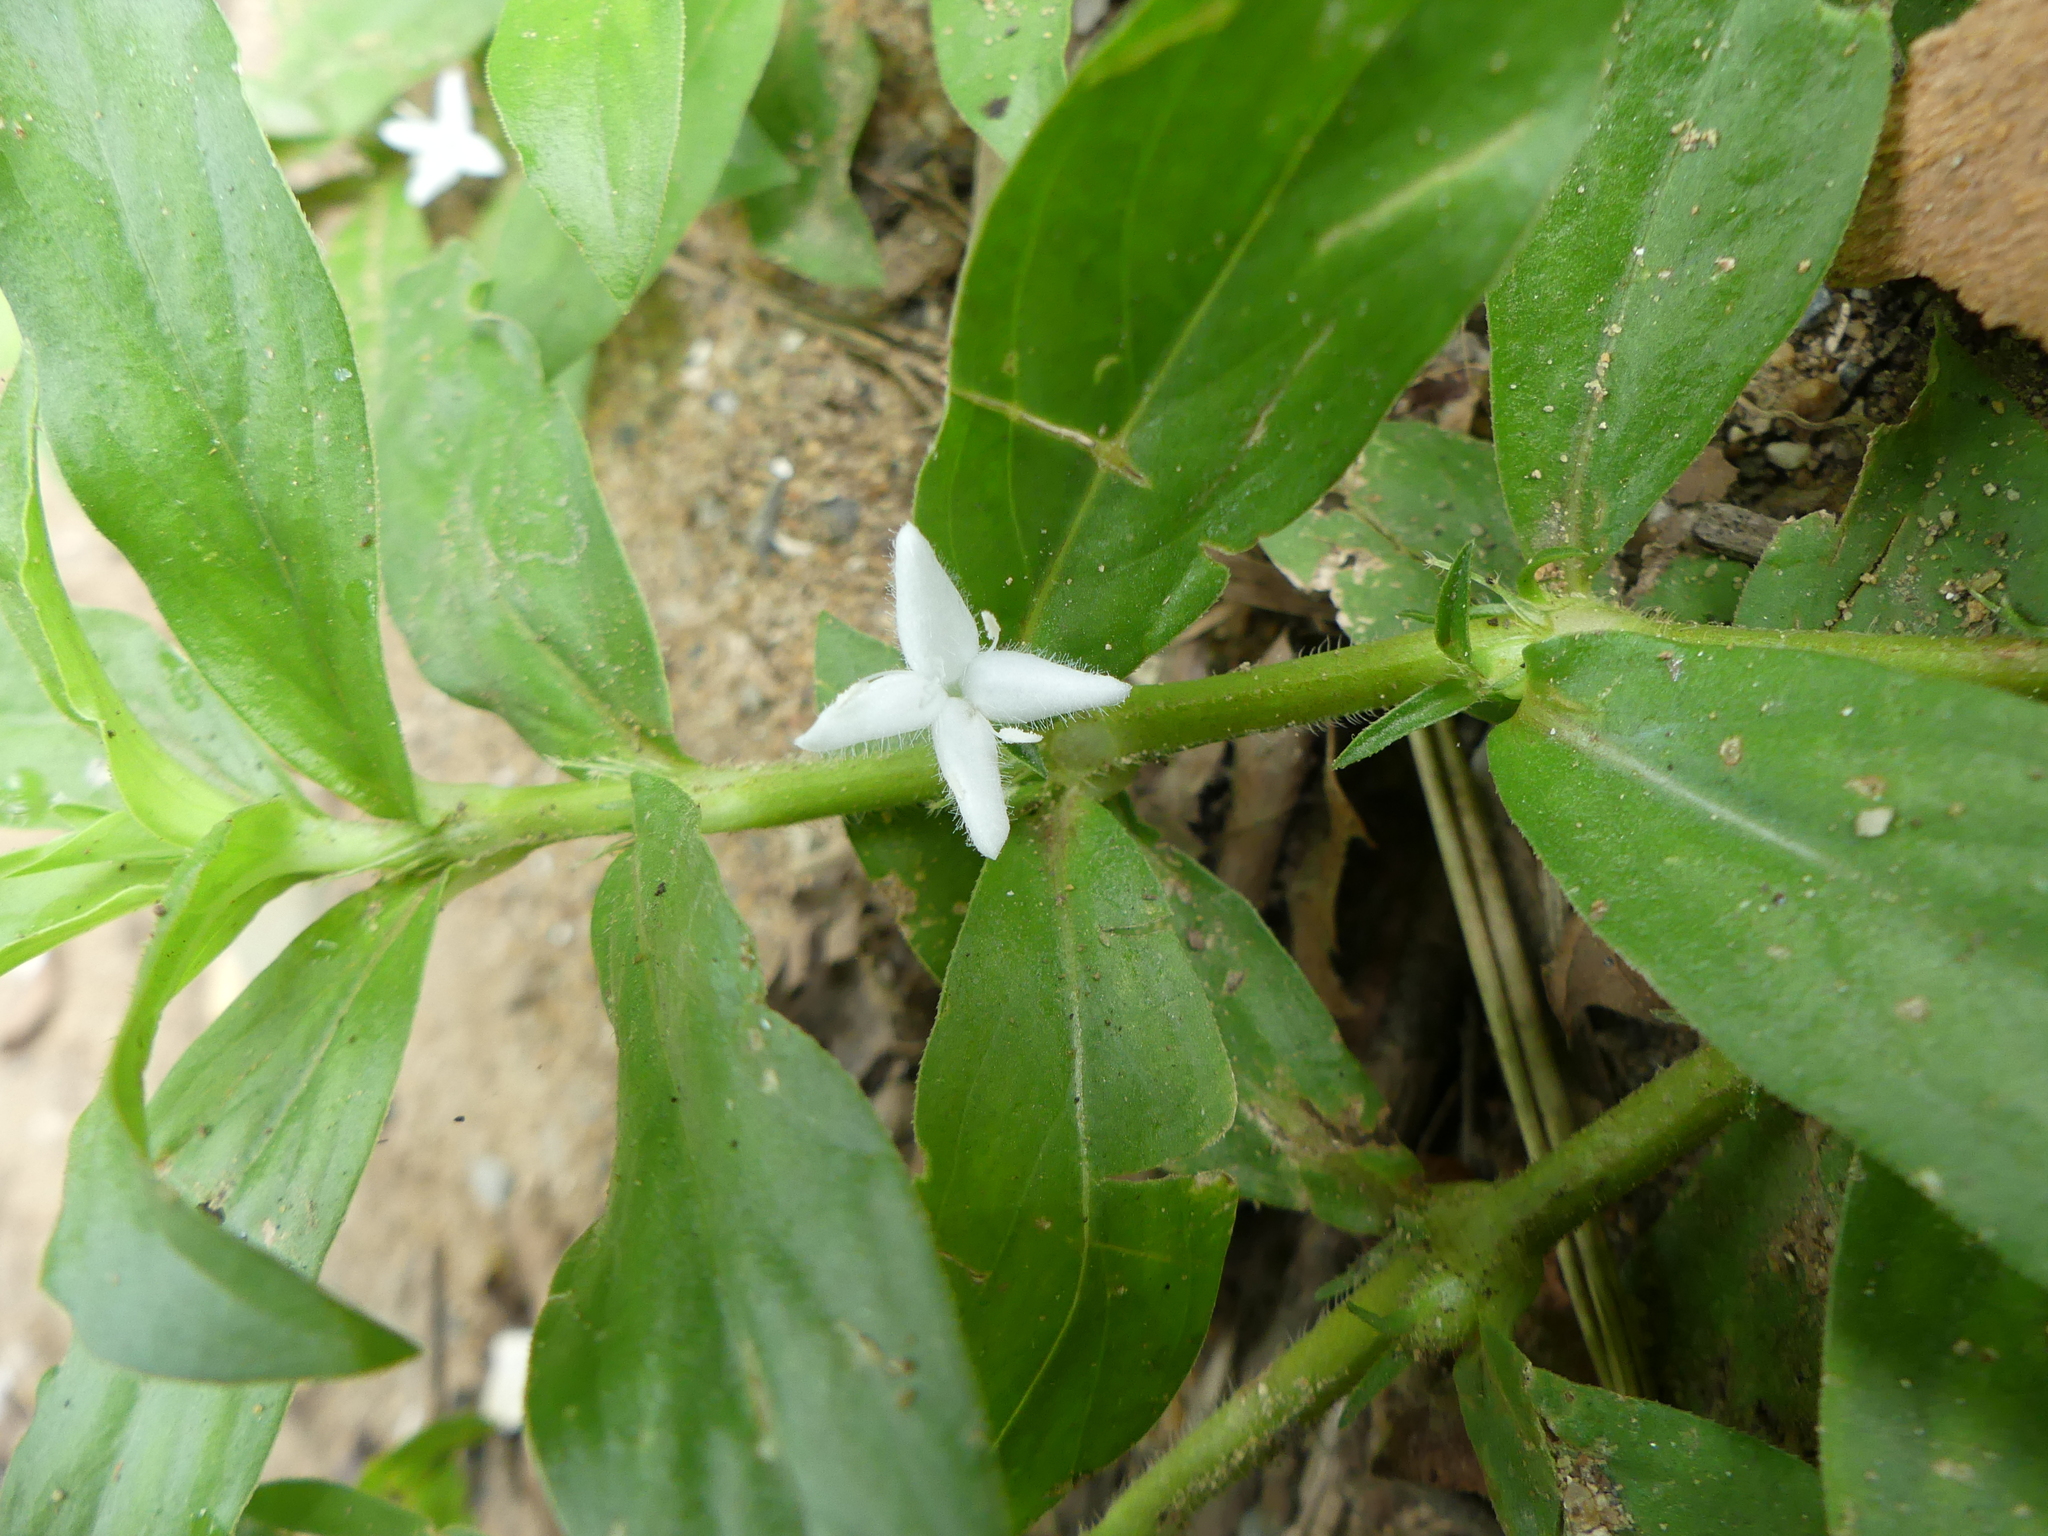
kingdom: Plantae
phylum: Tracheophyta
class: Magnoliopsida
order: Gentianales
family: Rubiaceae
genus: Diodia
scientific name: Diodia virginiana
